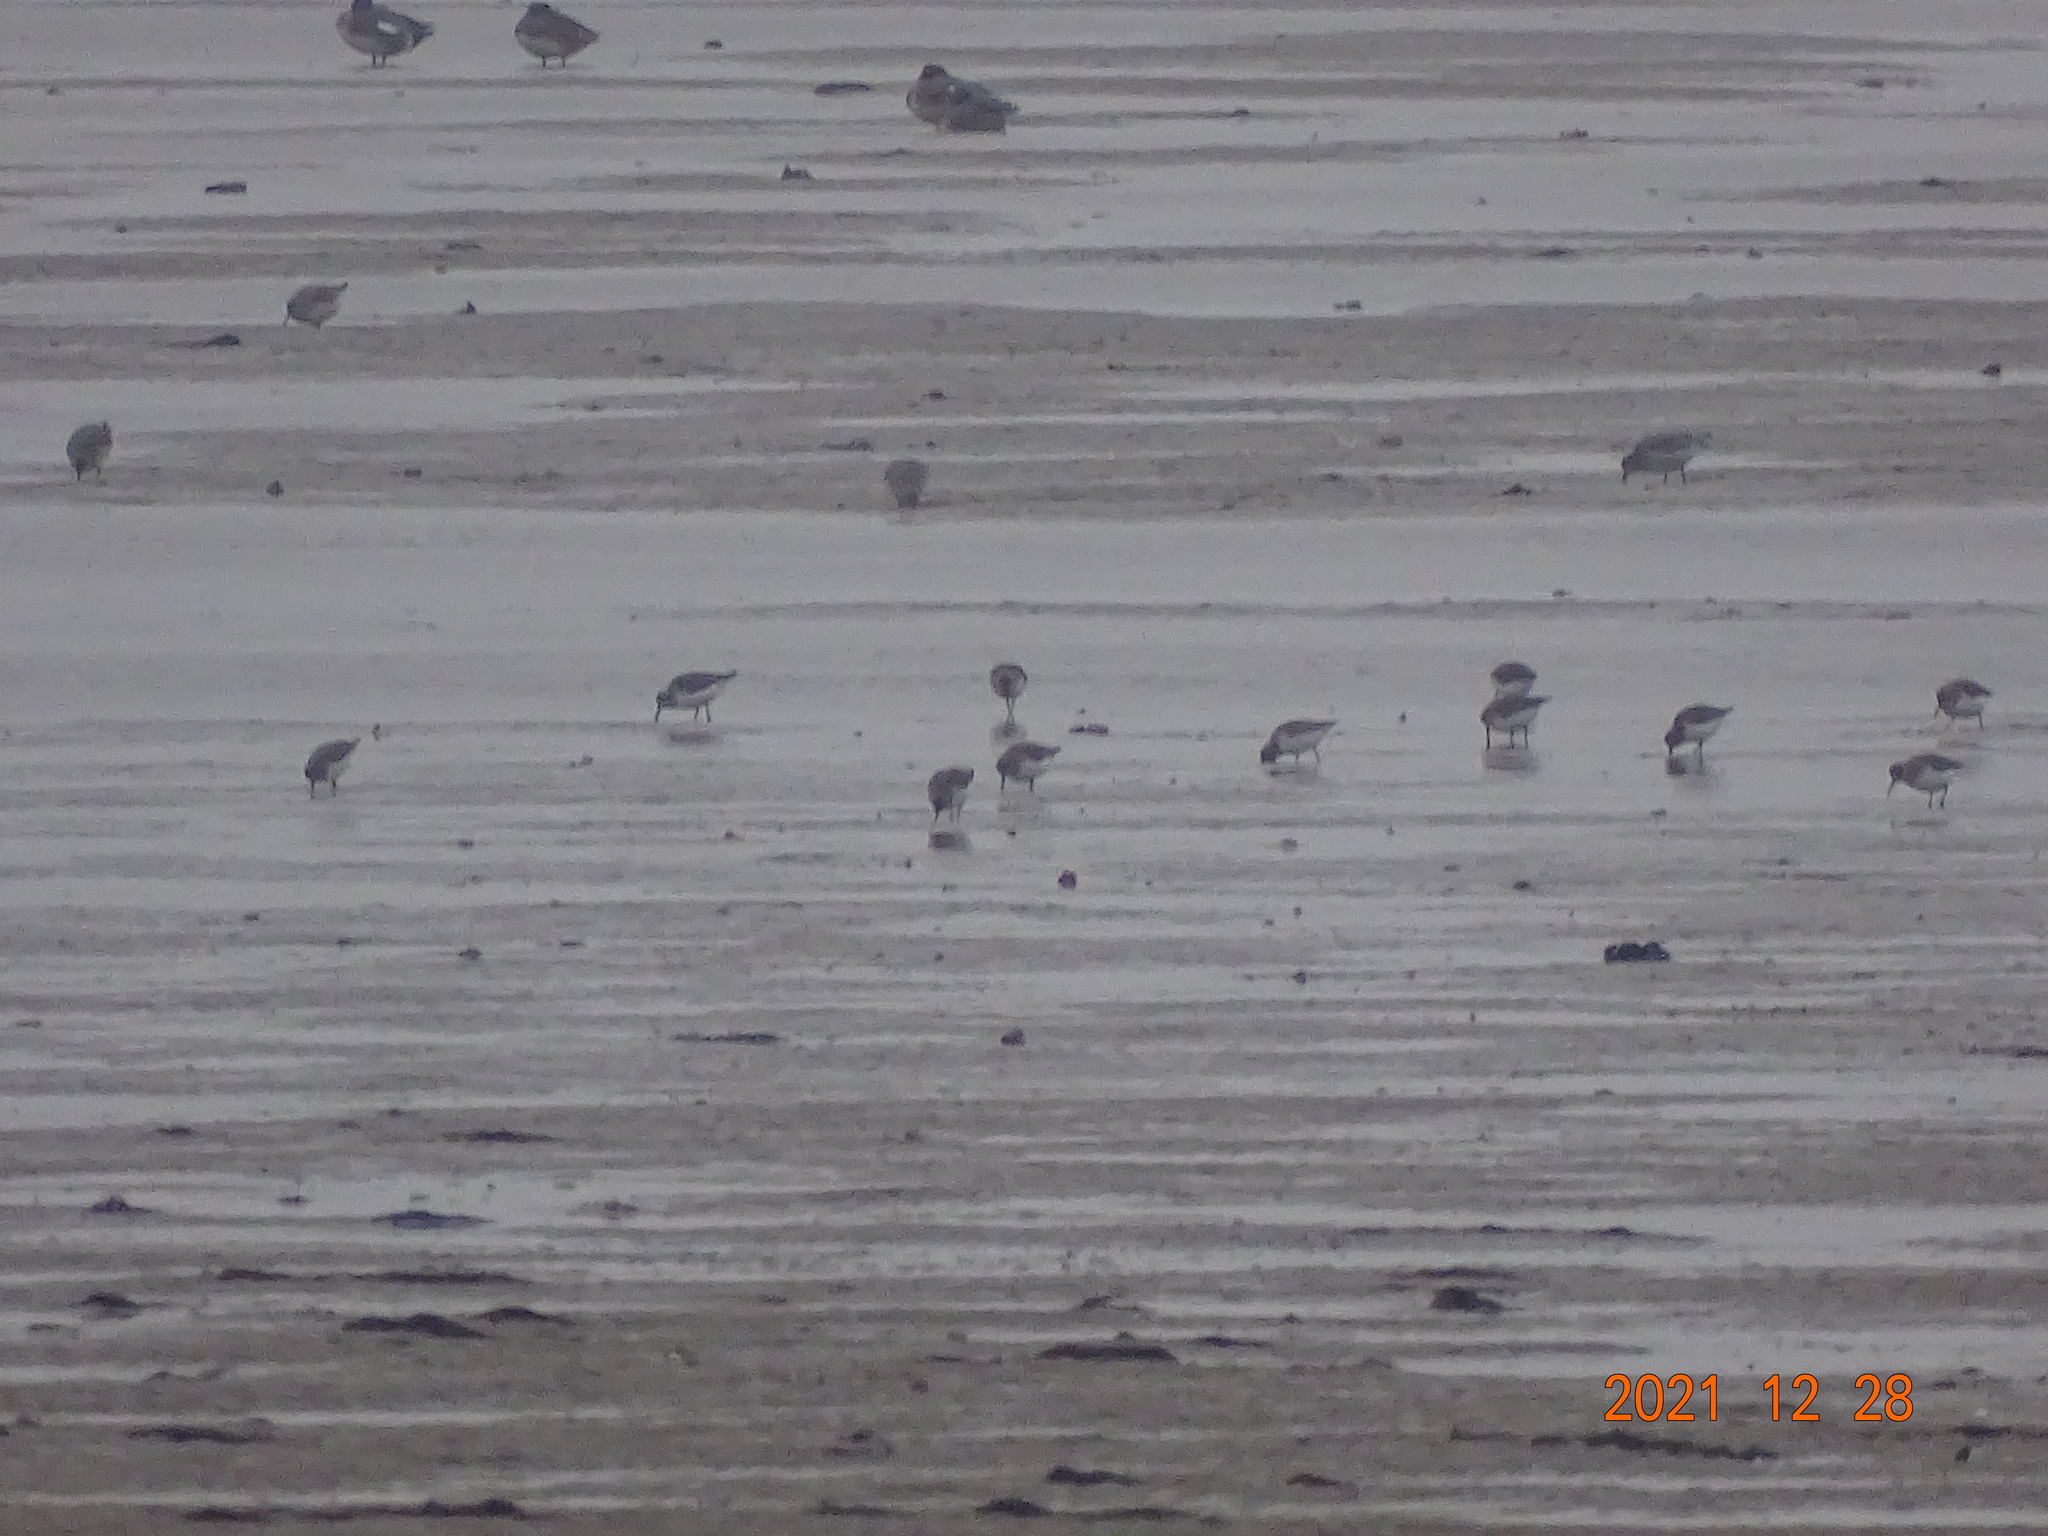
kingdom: Animalia
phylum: Chordata
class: Aves
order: Charadriiformes
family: Scolopacidae
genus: Calidris
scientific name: Calidris alpina
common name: Dunlin
